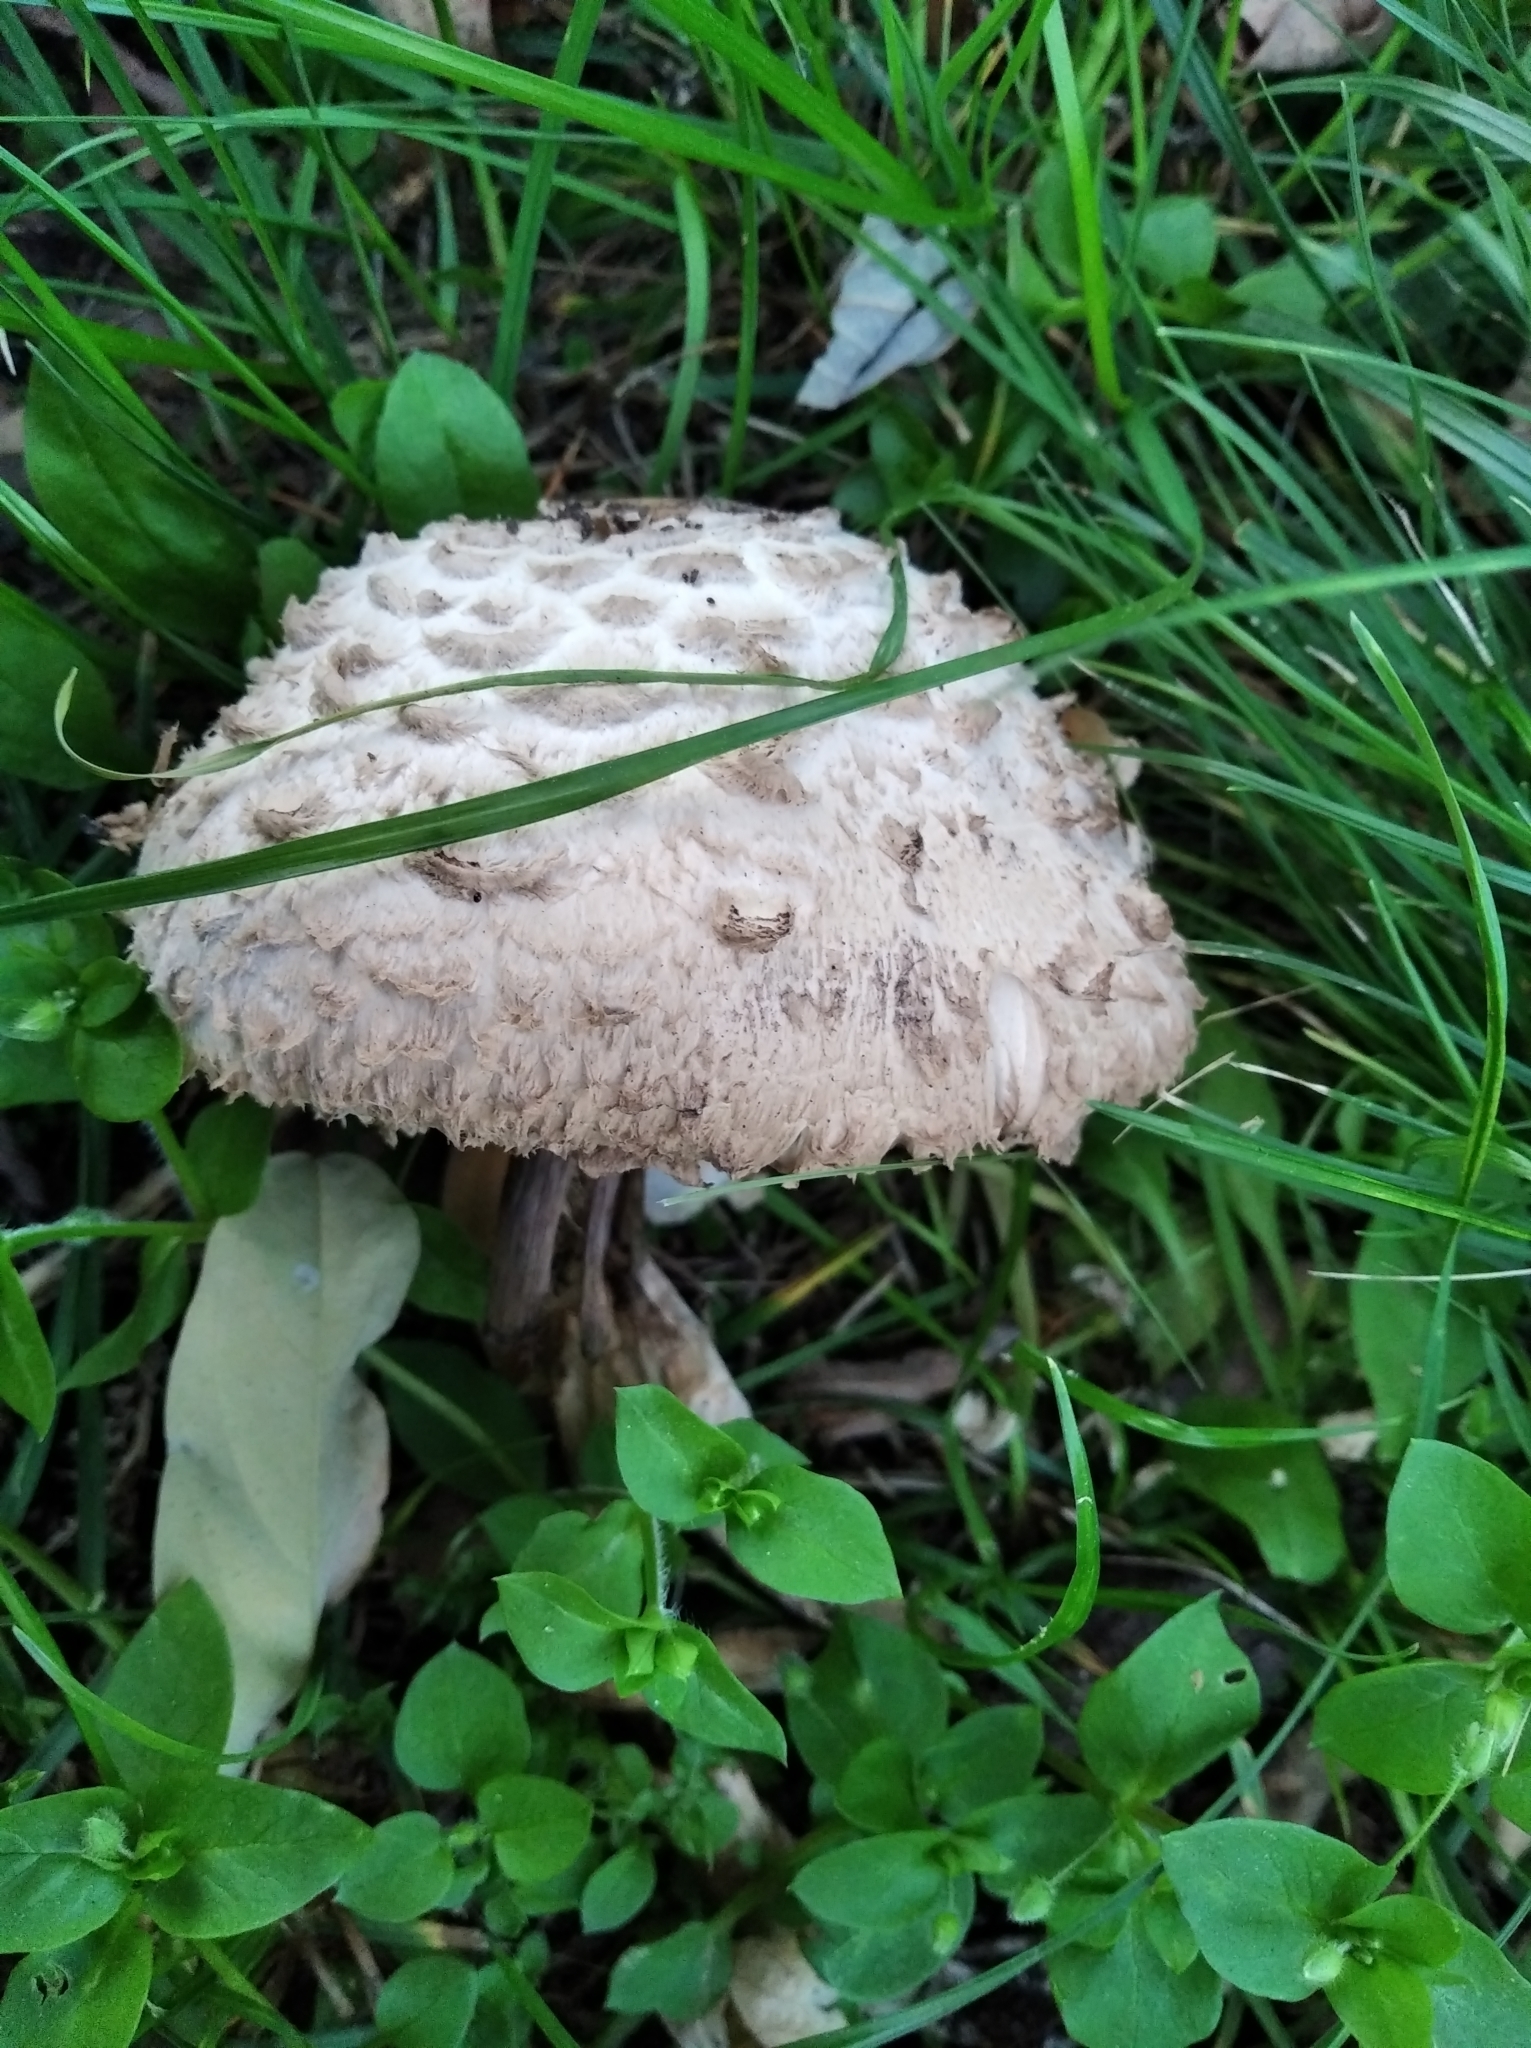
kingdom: Fungi
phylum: Basidiomycota
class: Agaricomycetes
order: Agaricales
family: Agaricaceae
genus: Chlorophyllum
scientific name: Chlorophyllum rhacodes
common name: Shaggy parasol
